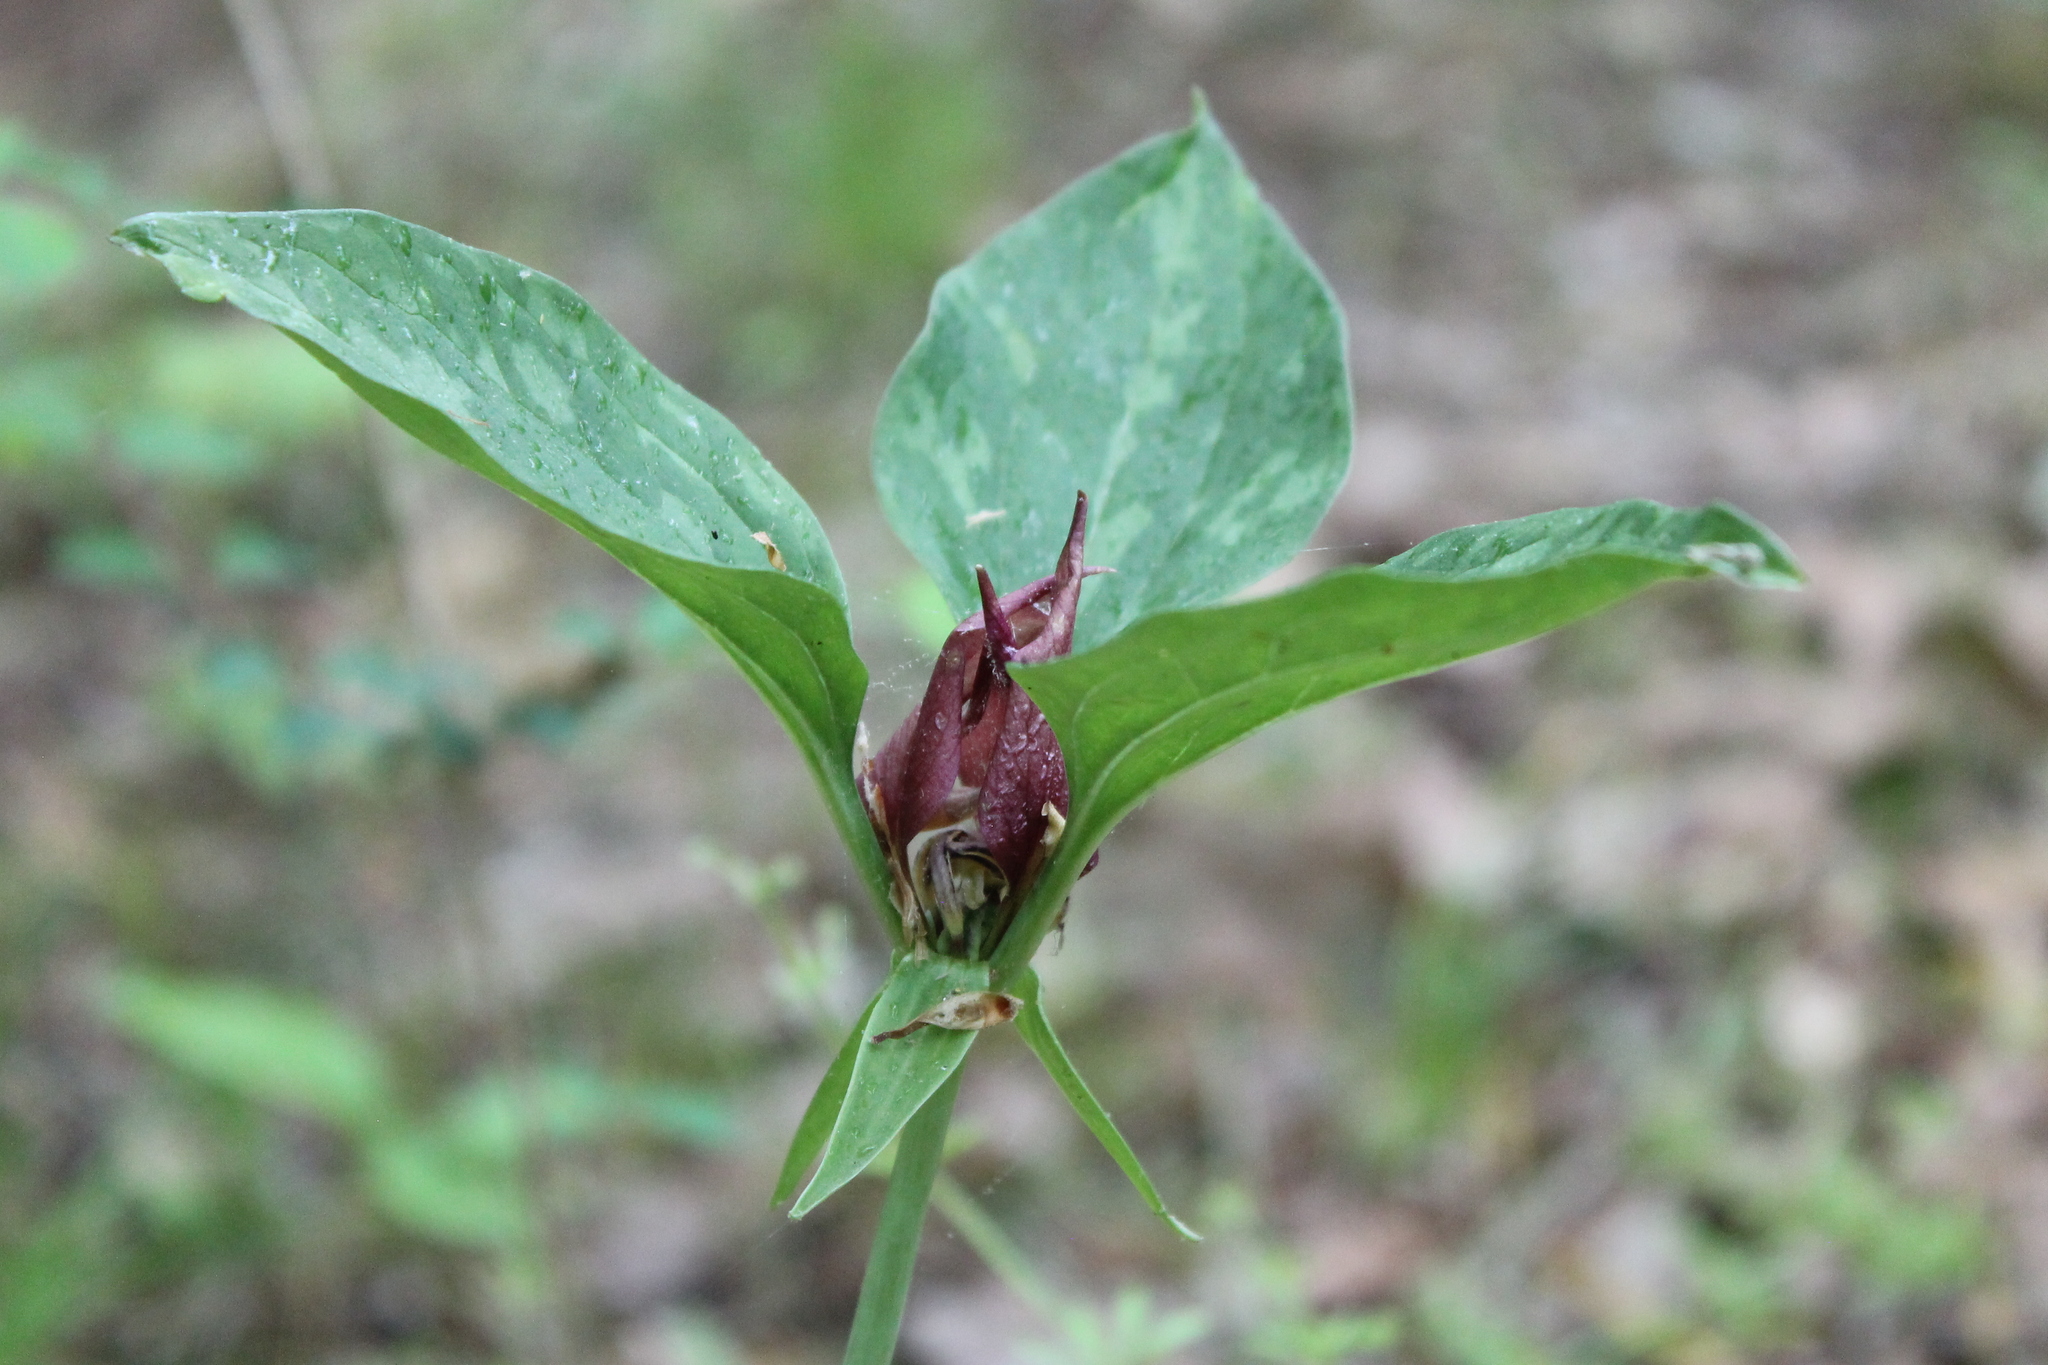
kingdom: Plantae
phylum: Tracheophyta
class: Liliopsida
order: Liliales
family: Melanthiaceae
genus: Trillium
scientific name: Trillium recurvatum
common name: Bloody butcher
